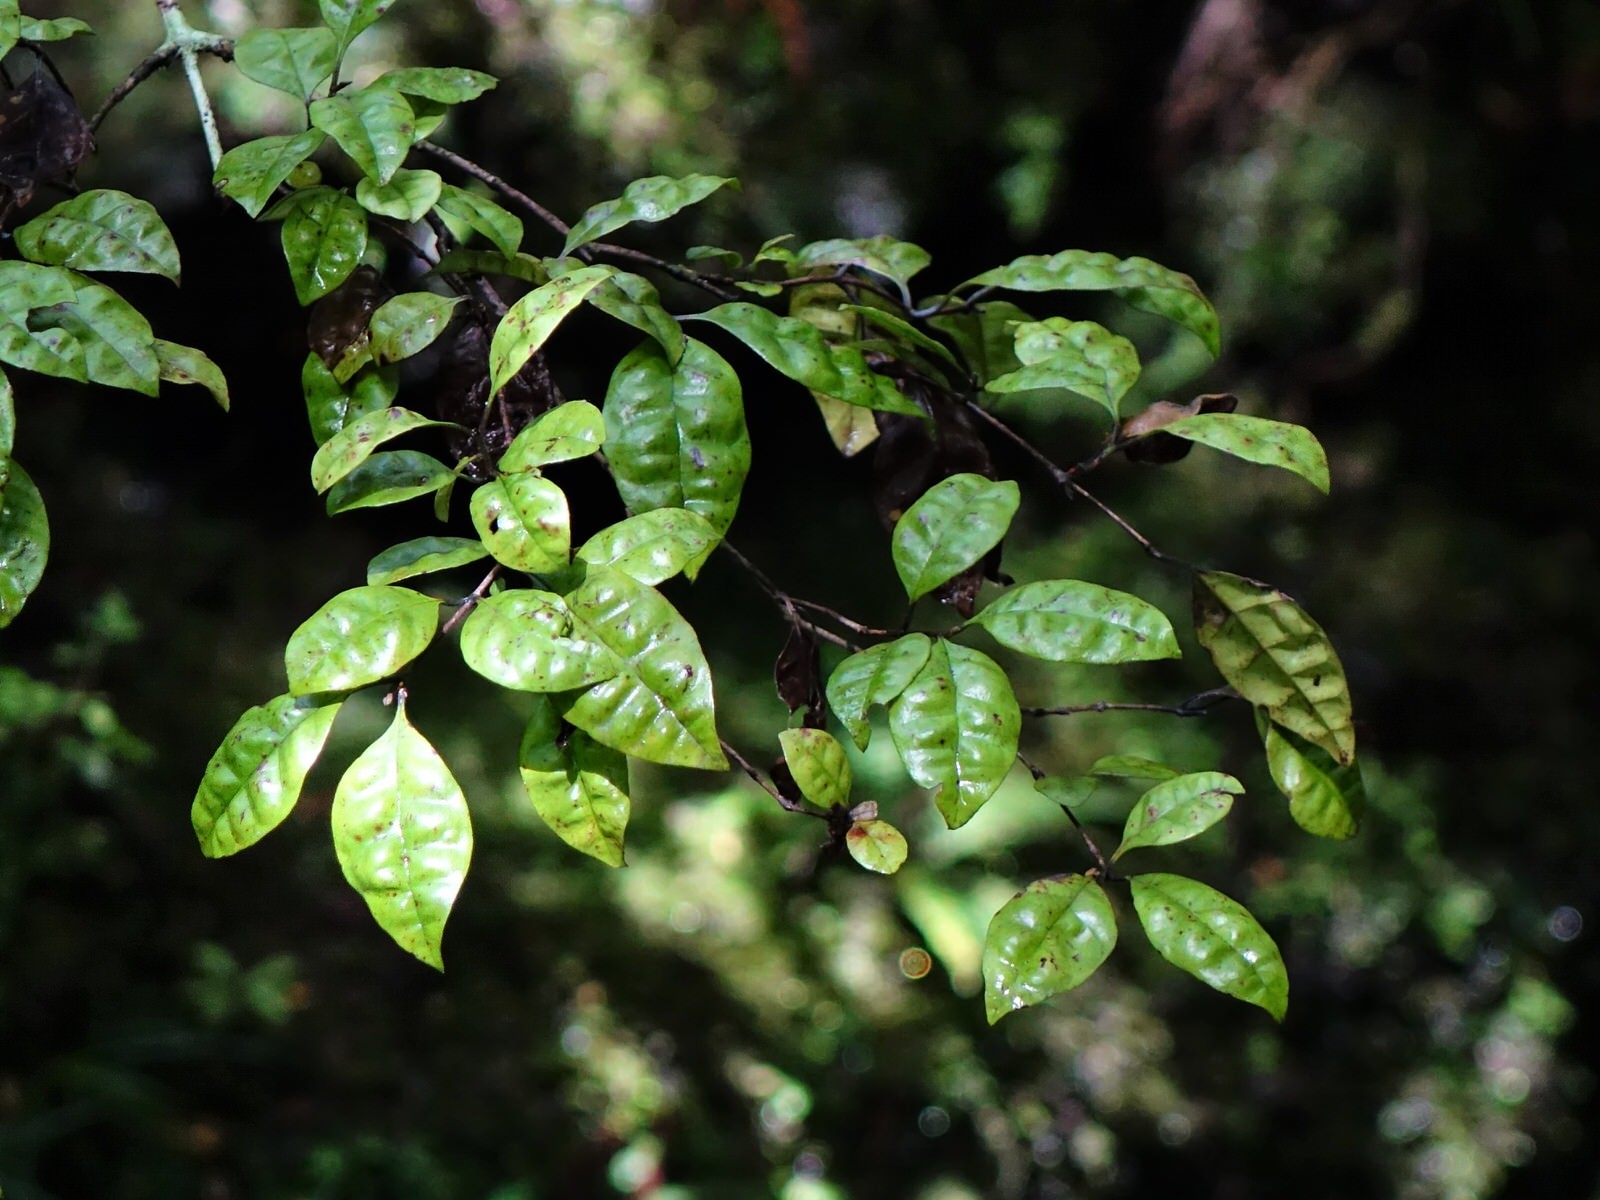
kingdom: Plantae
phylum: Tracheophyta
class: Magnoliopsida
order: Myrtales
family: Myrtaceae
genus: Lophomyrtus
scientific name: Lophomyrtus bullata
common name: Rama rama
